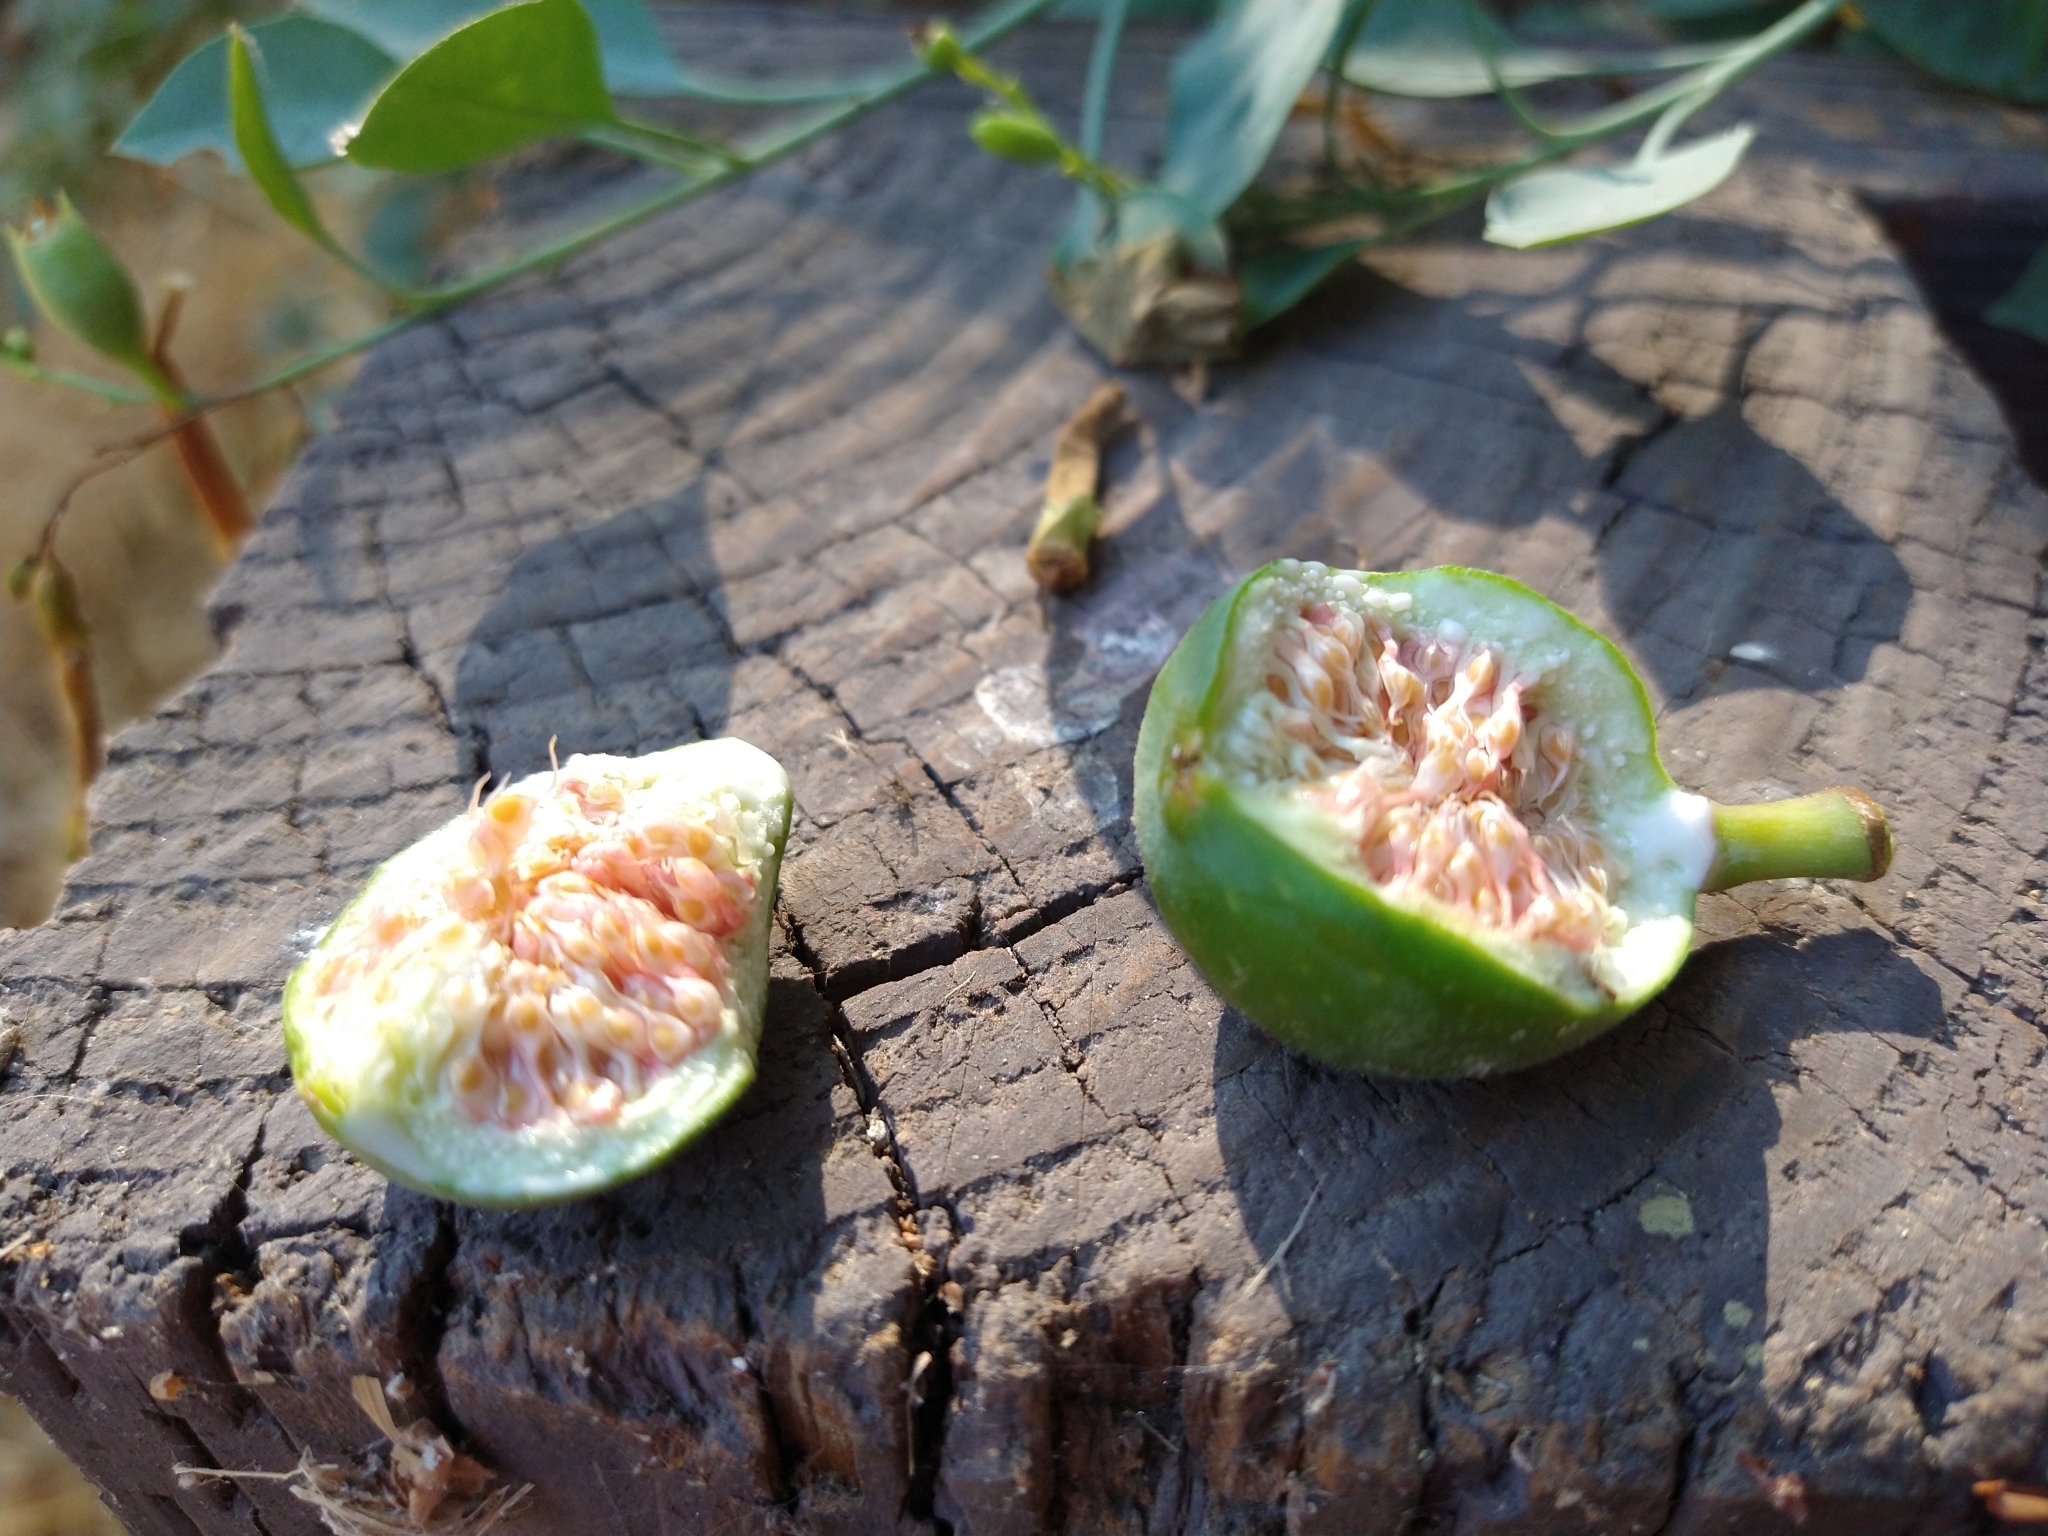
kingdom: Plantae
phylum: Tracheophyta
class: Magnoliopsida
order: Rosales
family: Moraceae
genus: Ficus
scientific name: Ficus carica
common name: Fig
